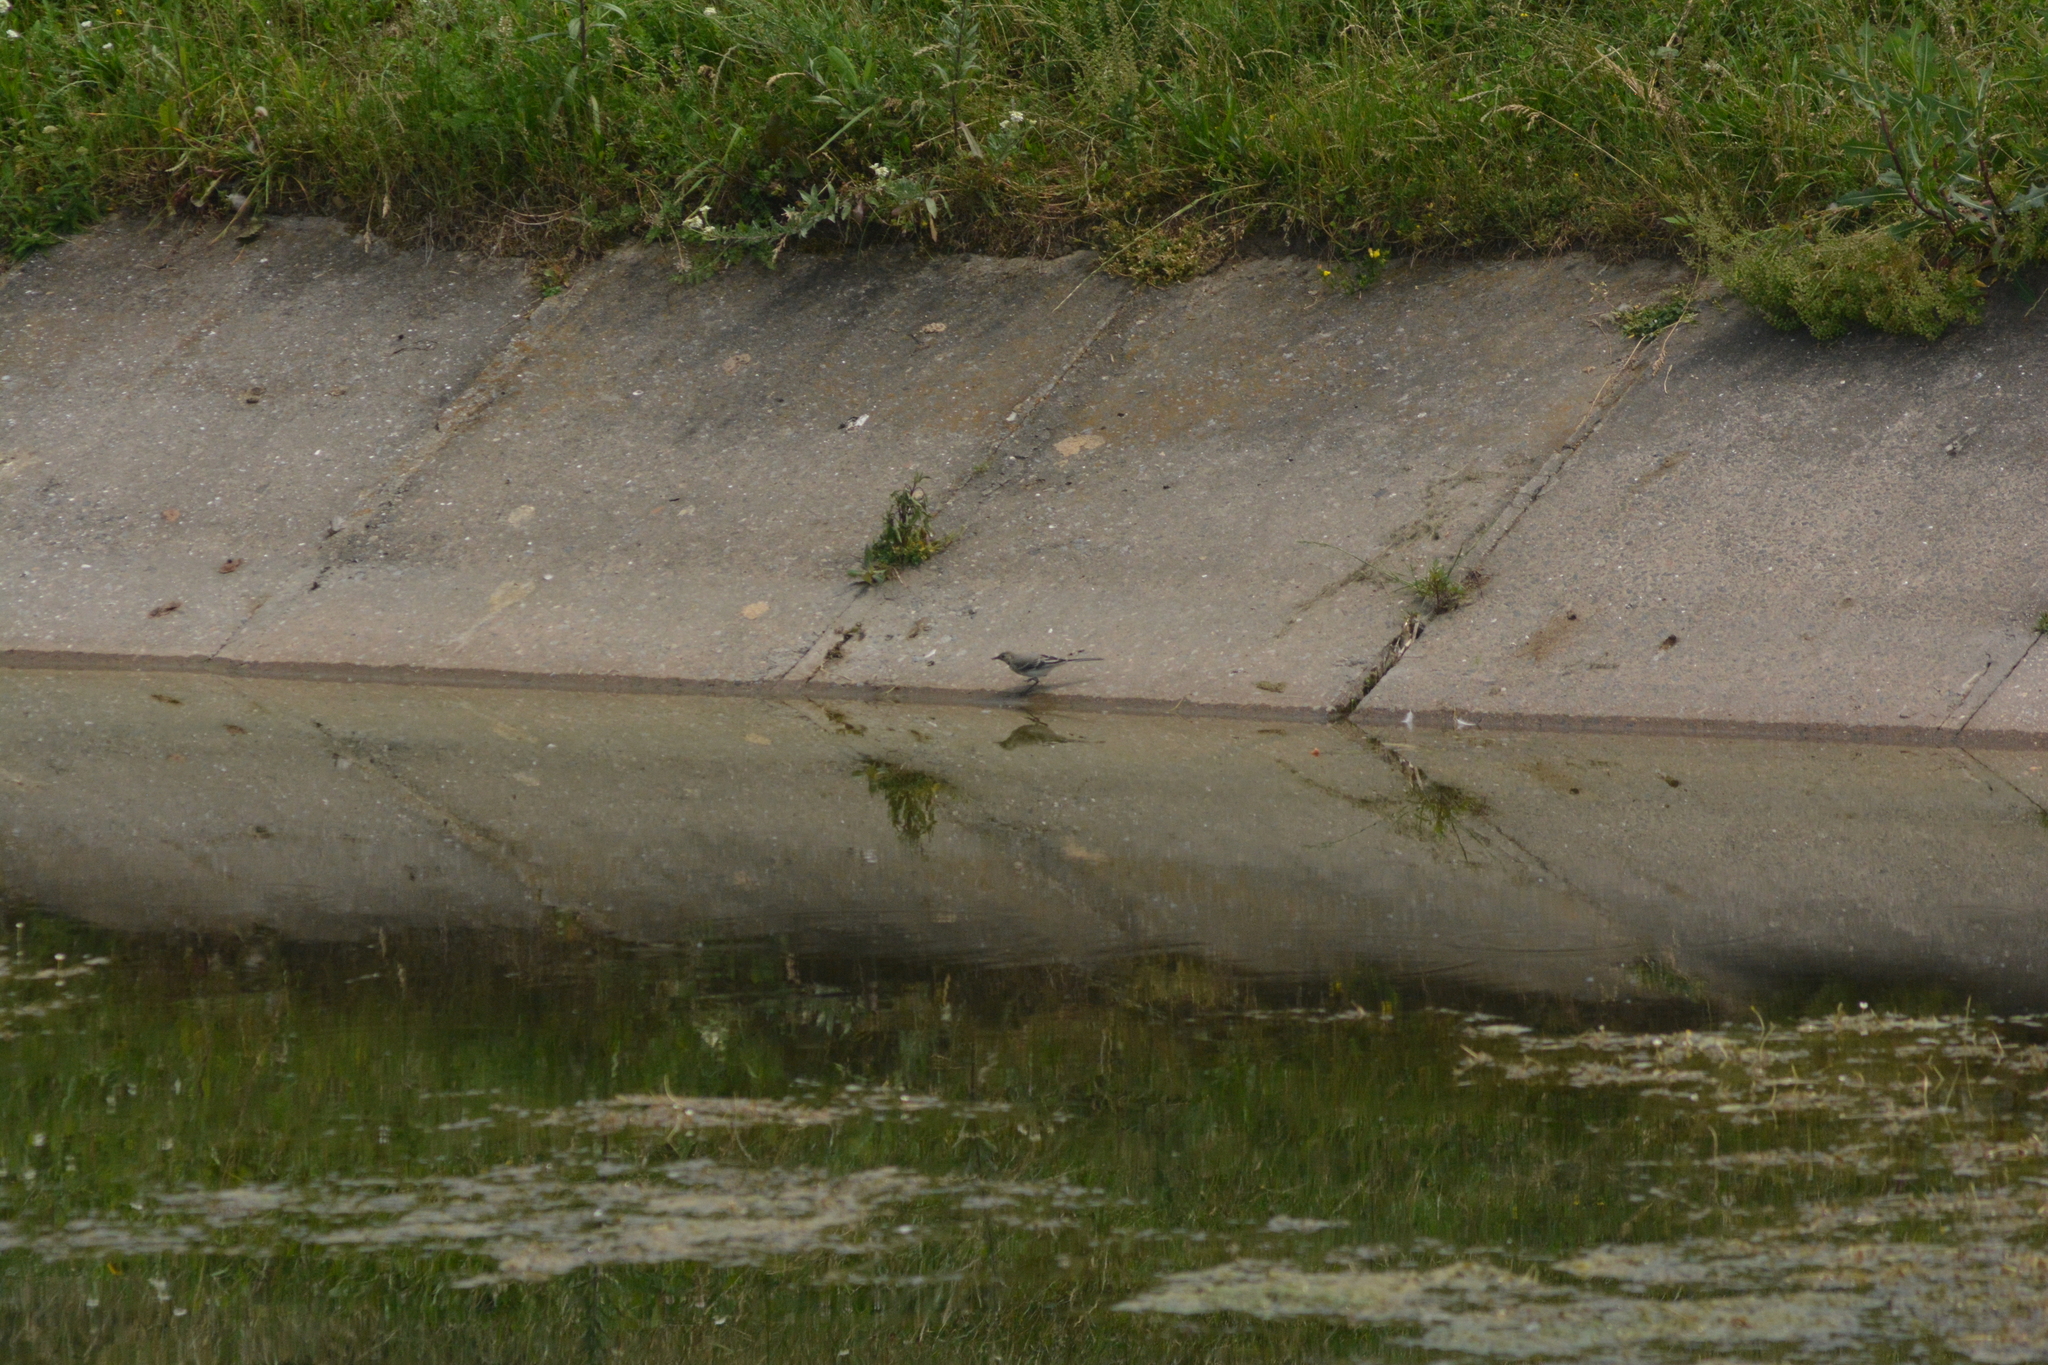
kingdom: Animalia
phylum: Chordata
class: Aves
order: Passeriformes
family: Motacillidae
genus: Motacilla
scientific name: Motacilla alba
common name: White wagtail
